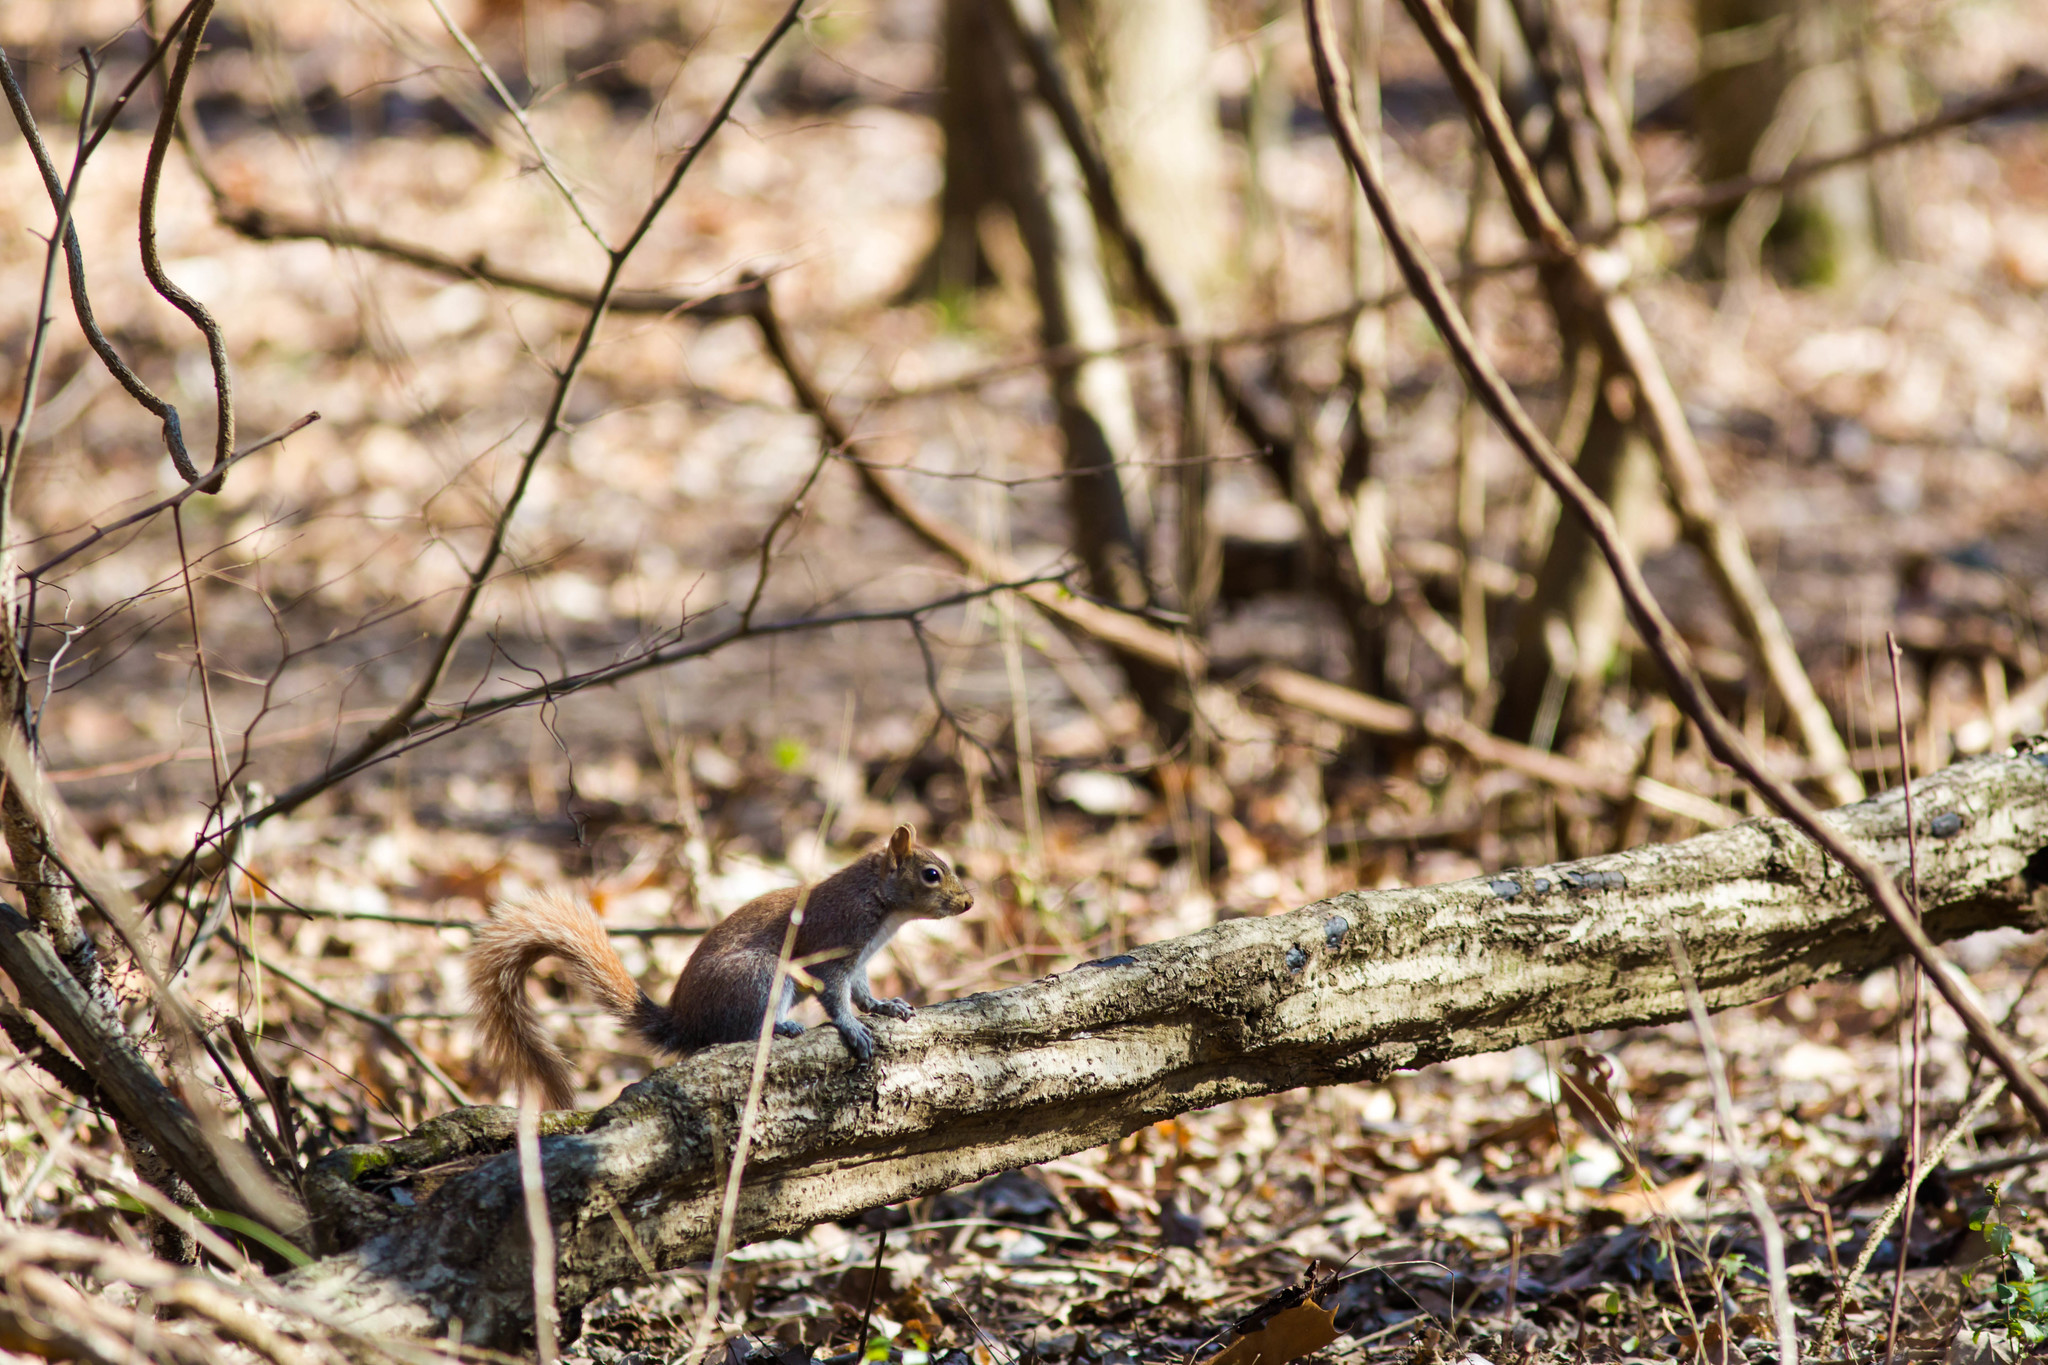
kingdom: Animalia
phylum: Chordata
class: Mammalia
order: Rodentia
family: Sciuridae
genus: Sciurus
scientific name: Sciurus carolinensis
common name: Eastern gray squirrel
